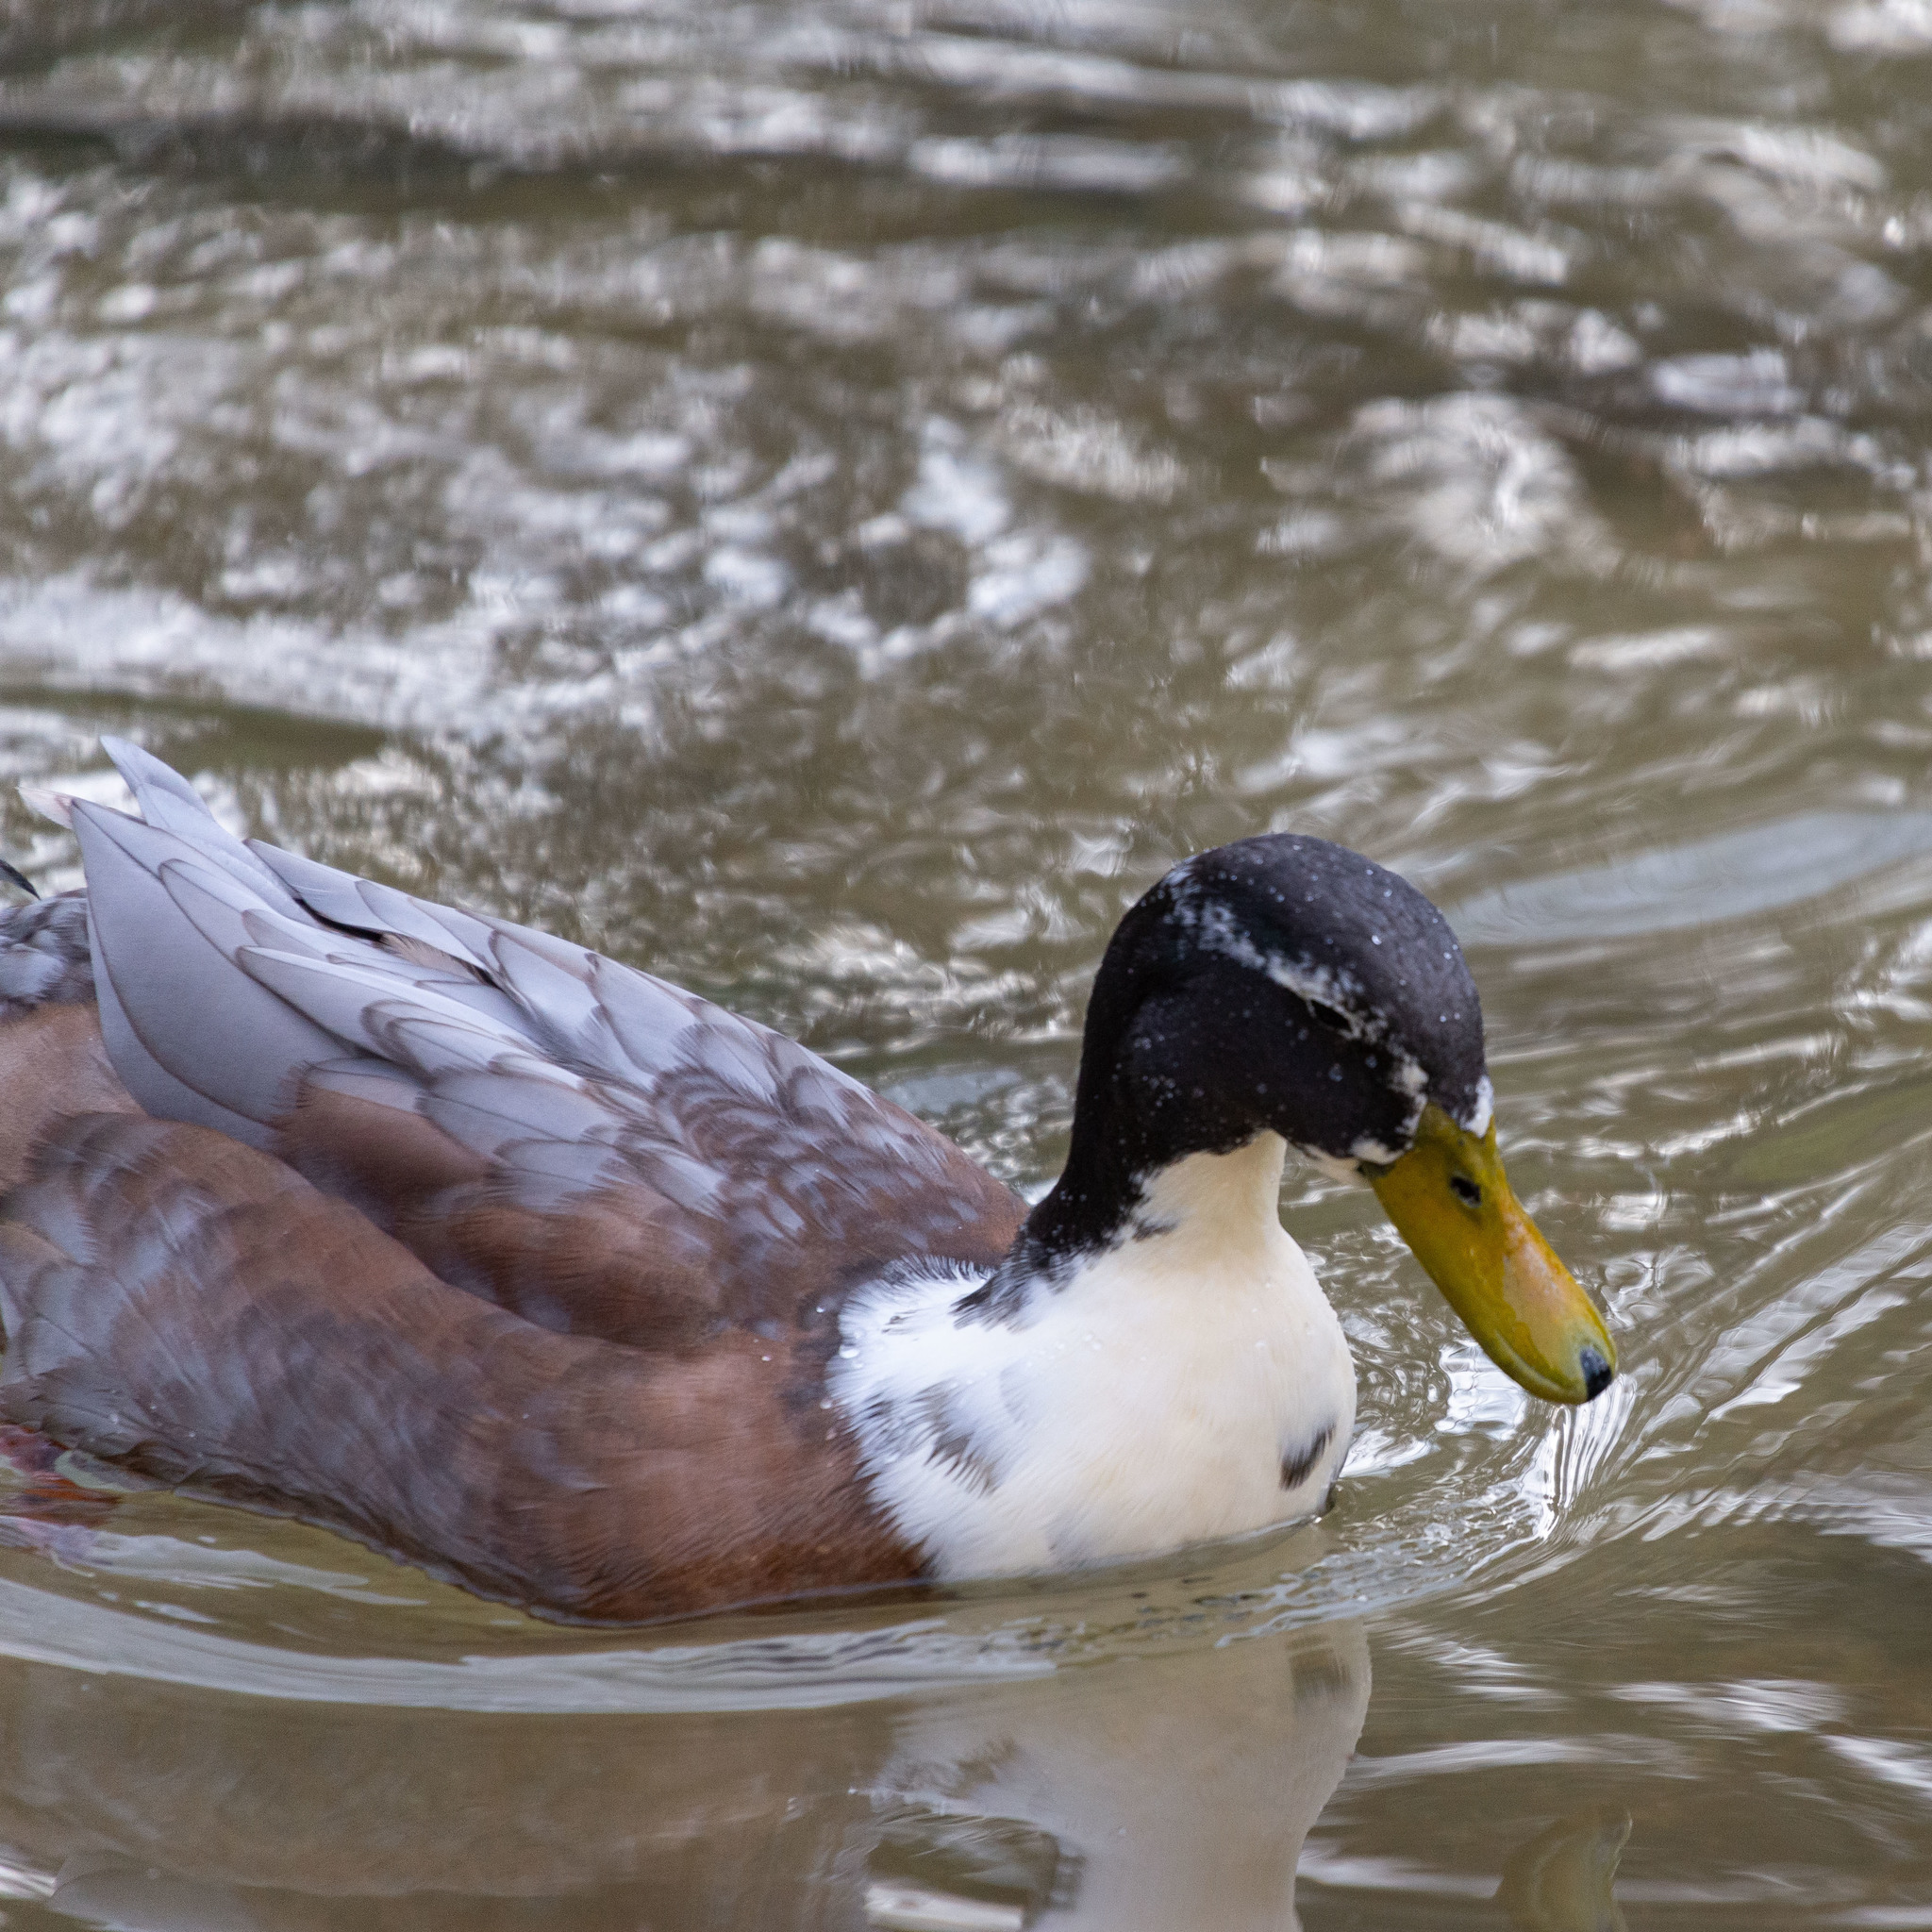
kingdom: Animalia
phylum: Chordata
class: Aves
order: Anseriformes
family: Anatidae
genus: Anas
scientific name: Anas platyrhynchos
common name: Mallard
